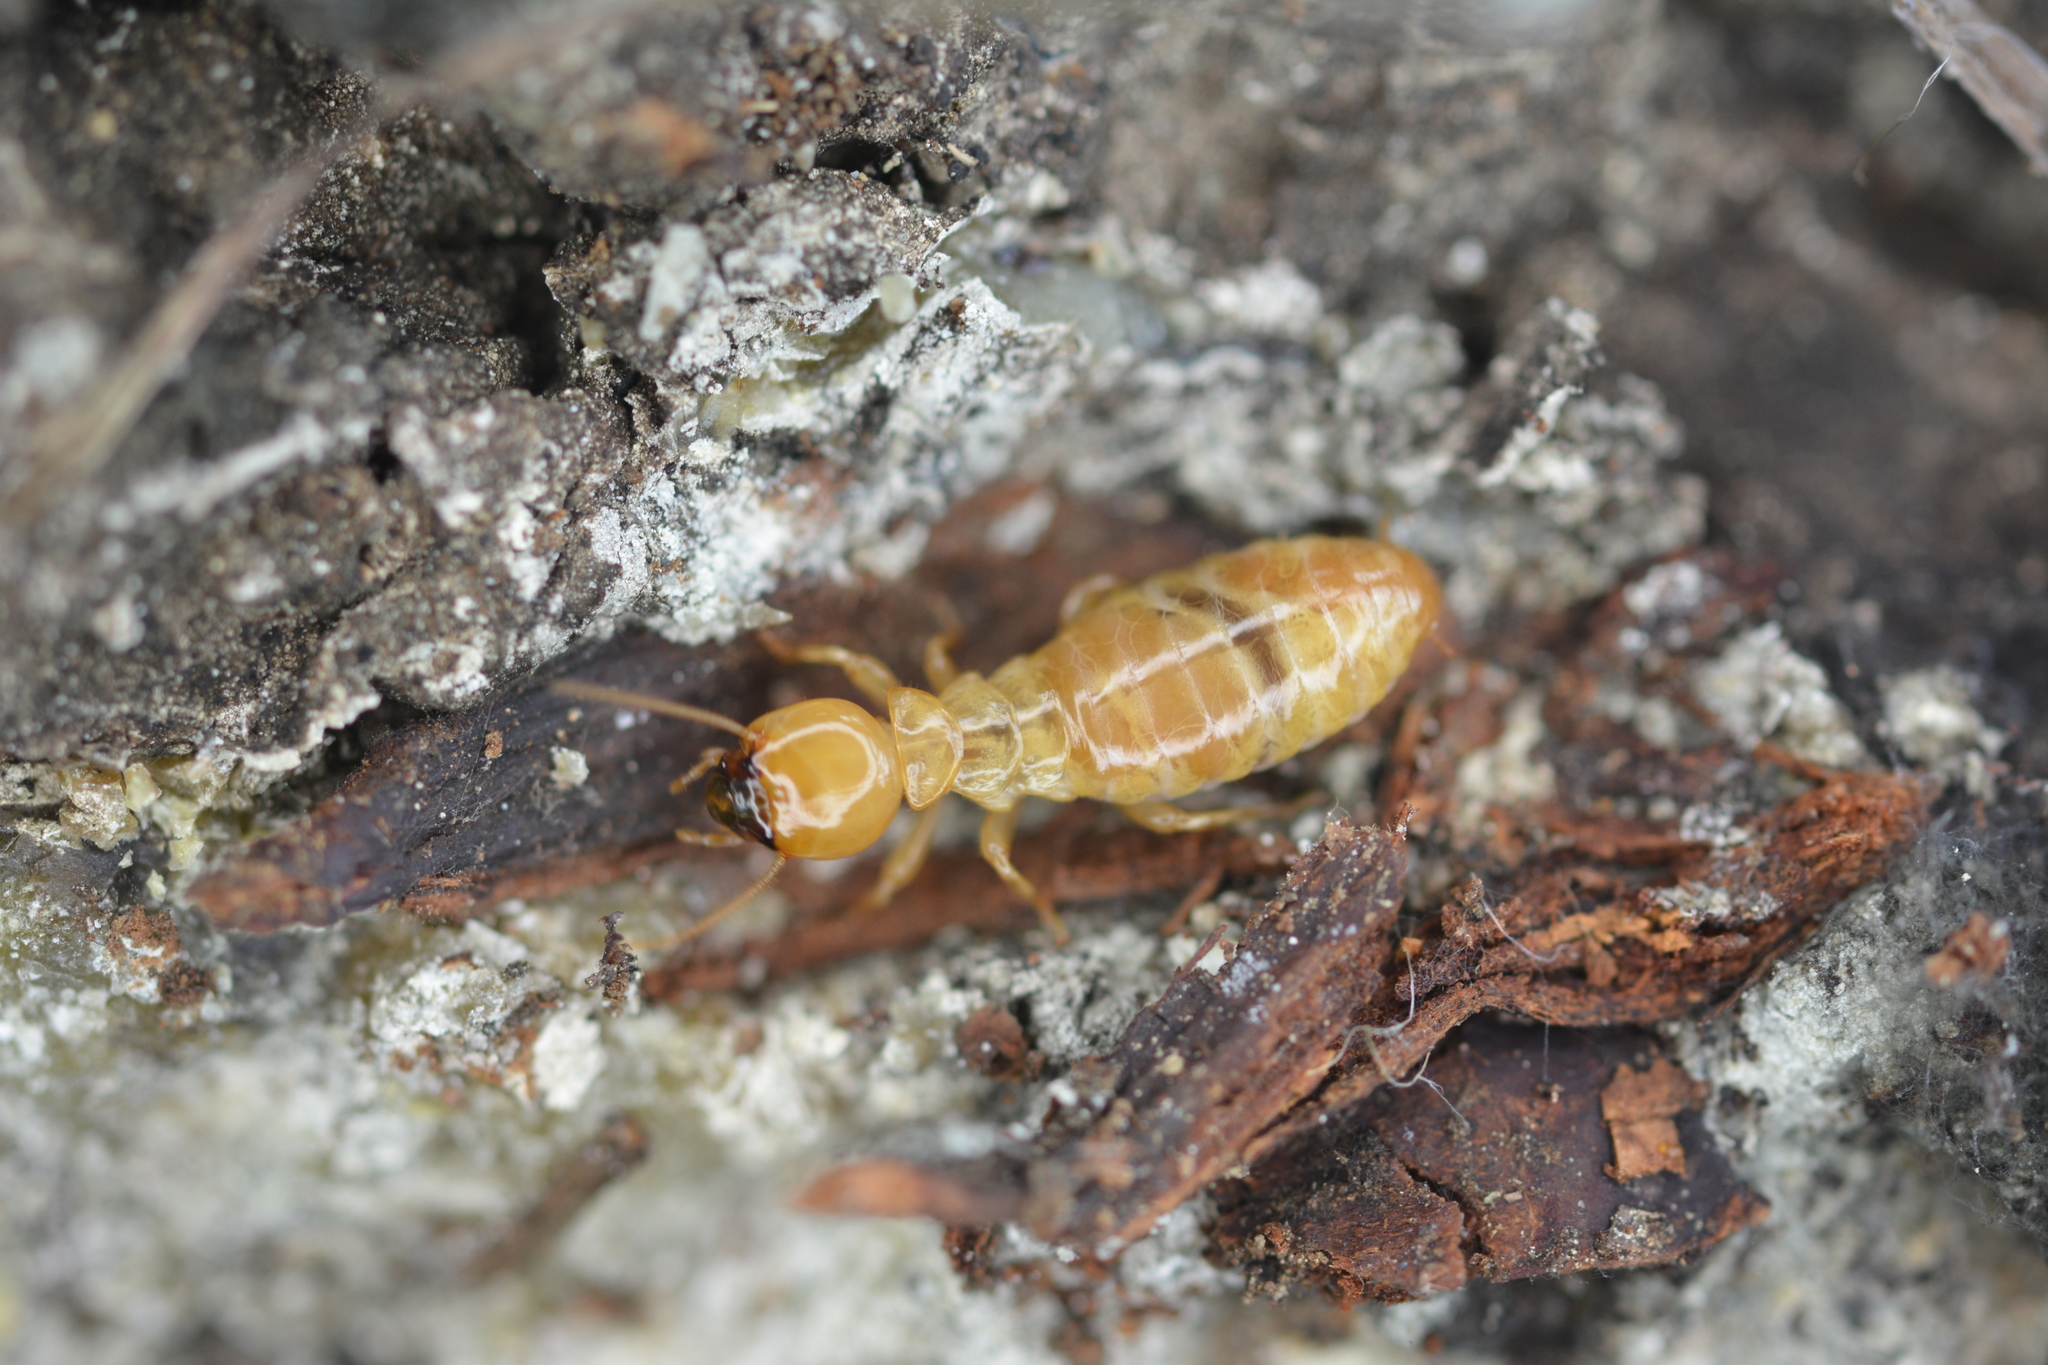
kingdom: Animalia
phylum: Arthropoda
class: Insecta
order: Blattodea
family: Archotermopsidae
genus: Zootermopsis
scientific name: Zootermopsis angusticollis
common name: Rottenwood termite
